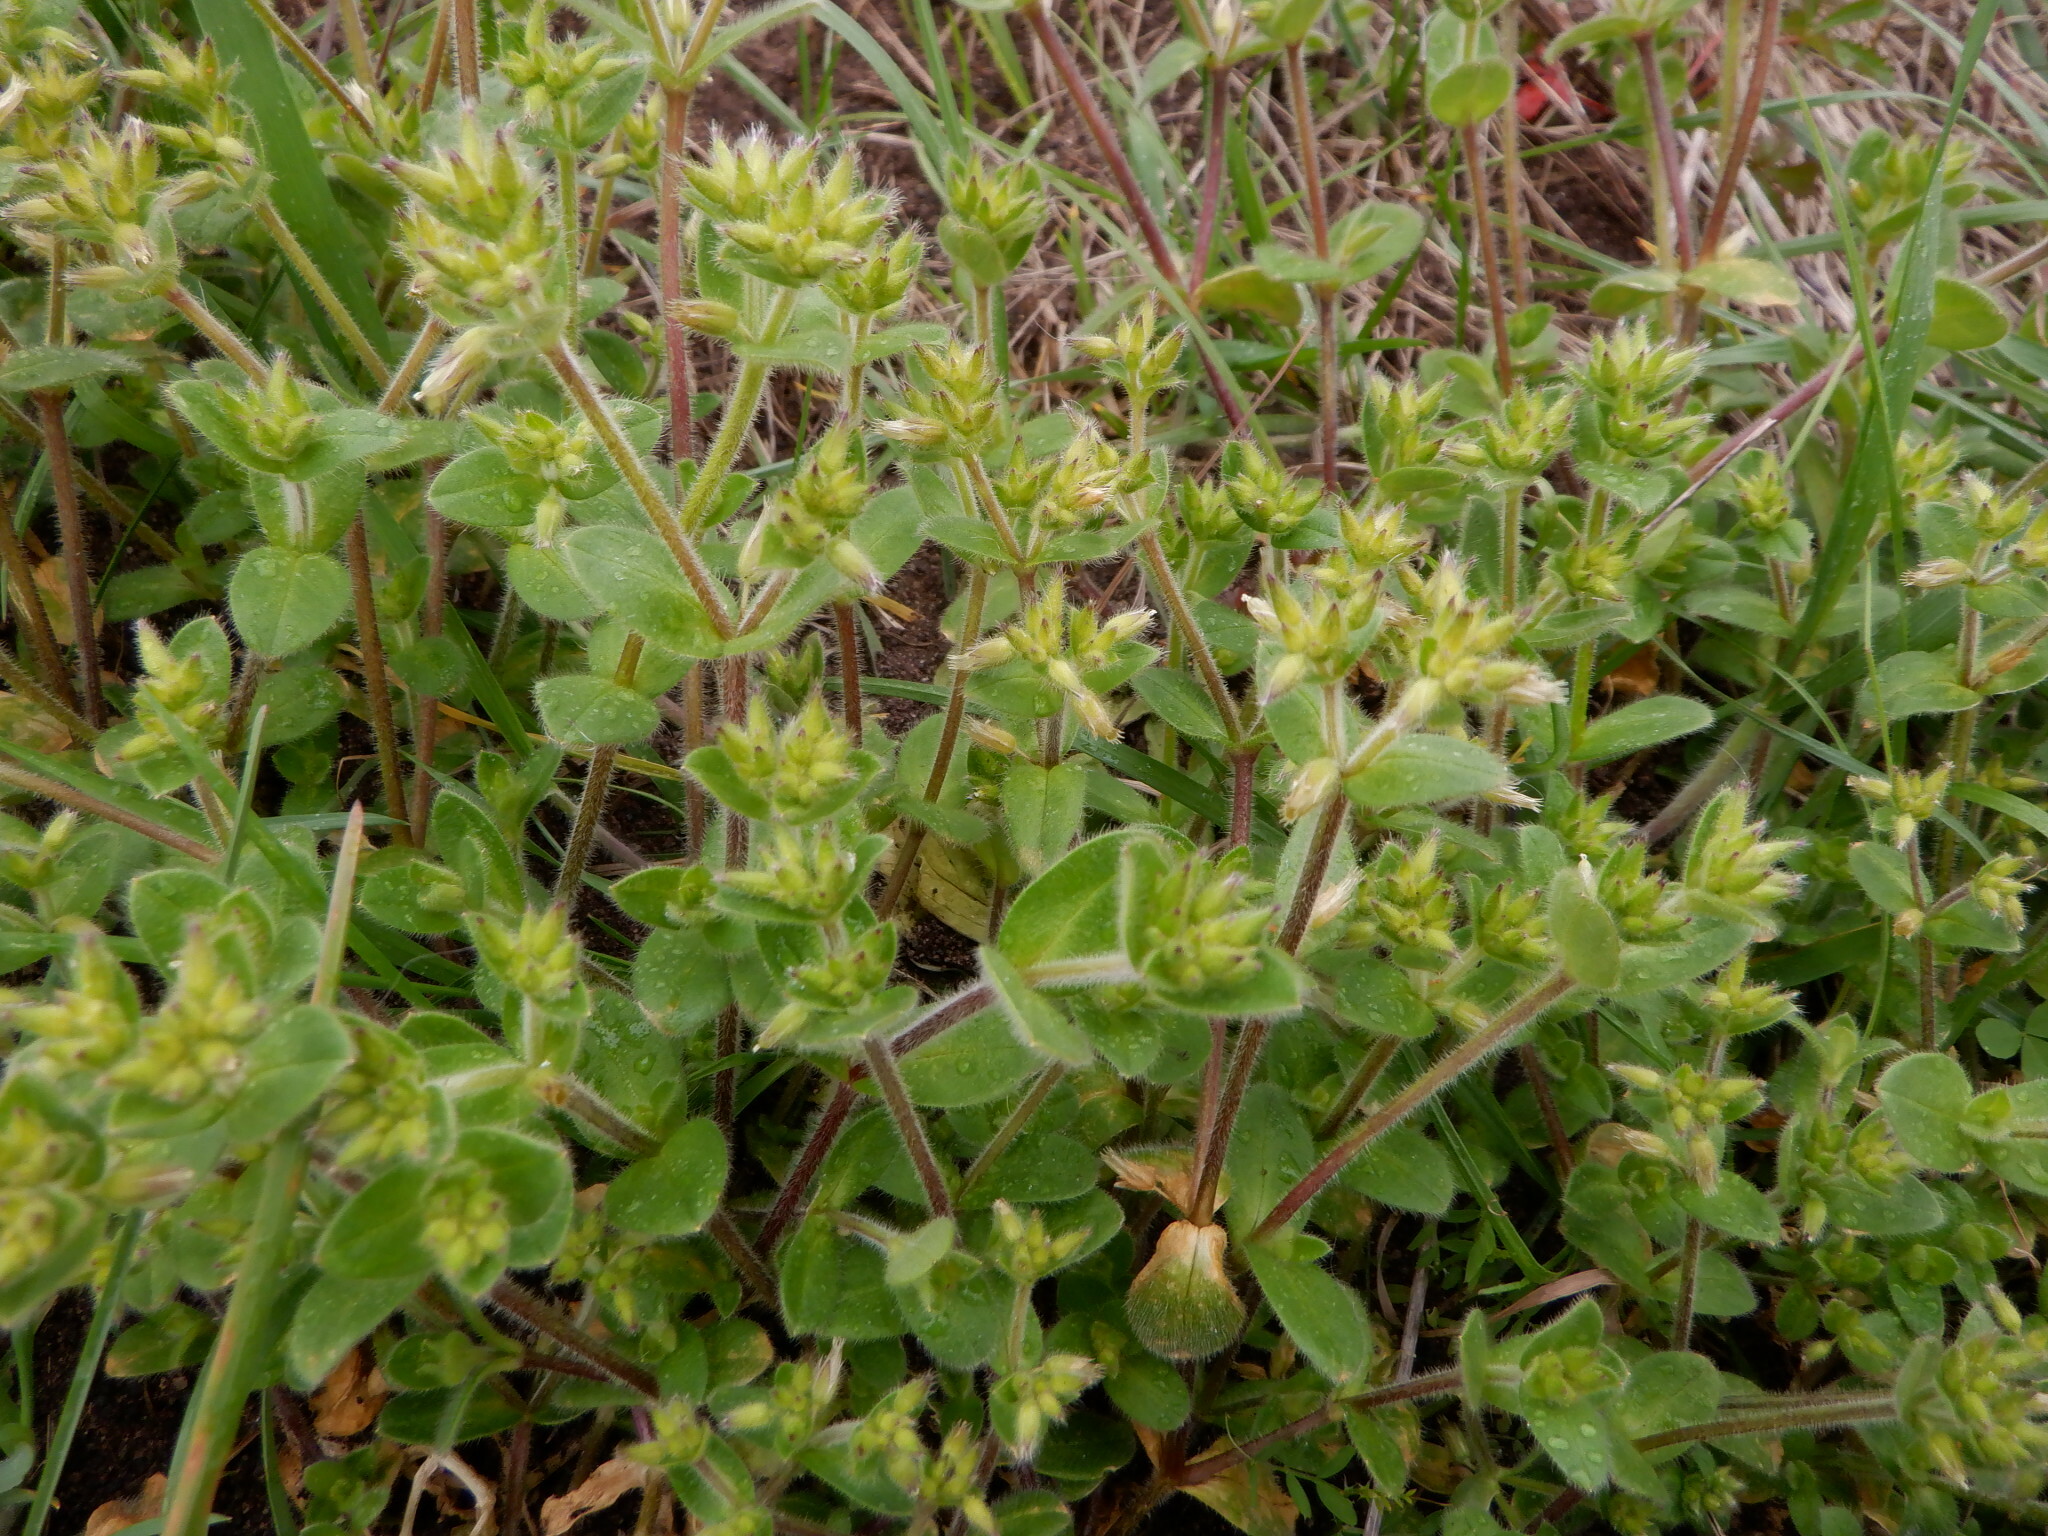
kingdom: Plantae
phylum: Tracheophyta
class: Magnoliopsida
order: Caryophyllales
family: Caryophyllaceae
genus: Cerastium
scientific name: Cerastium glomeratum
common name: Sticky chickweed
